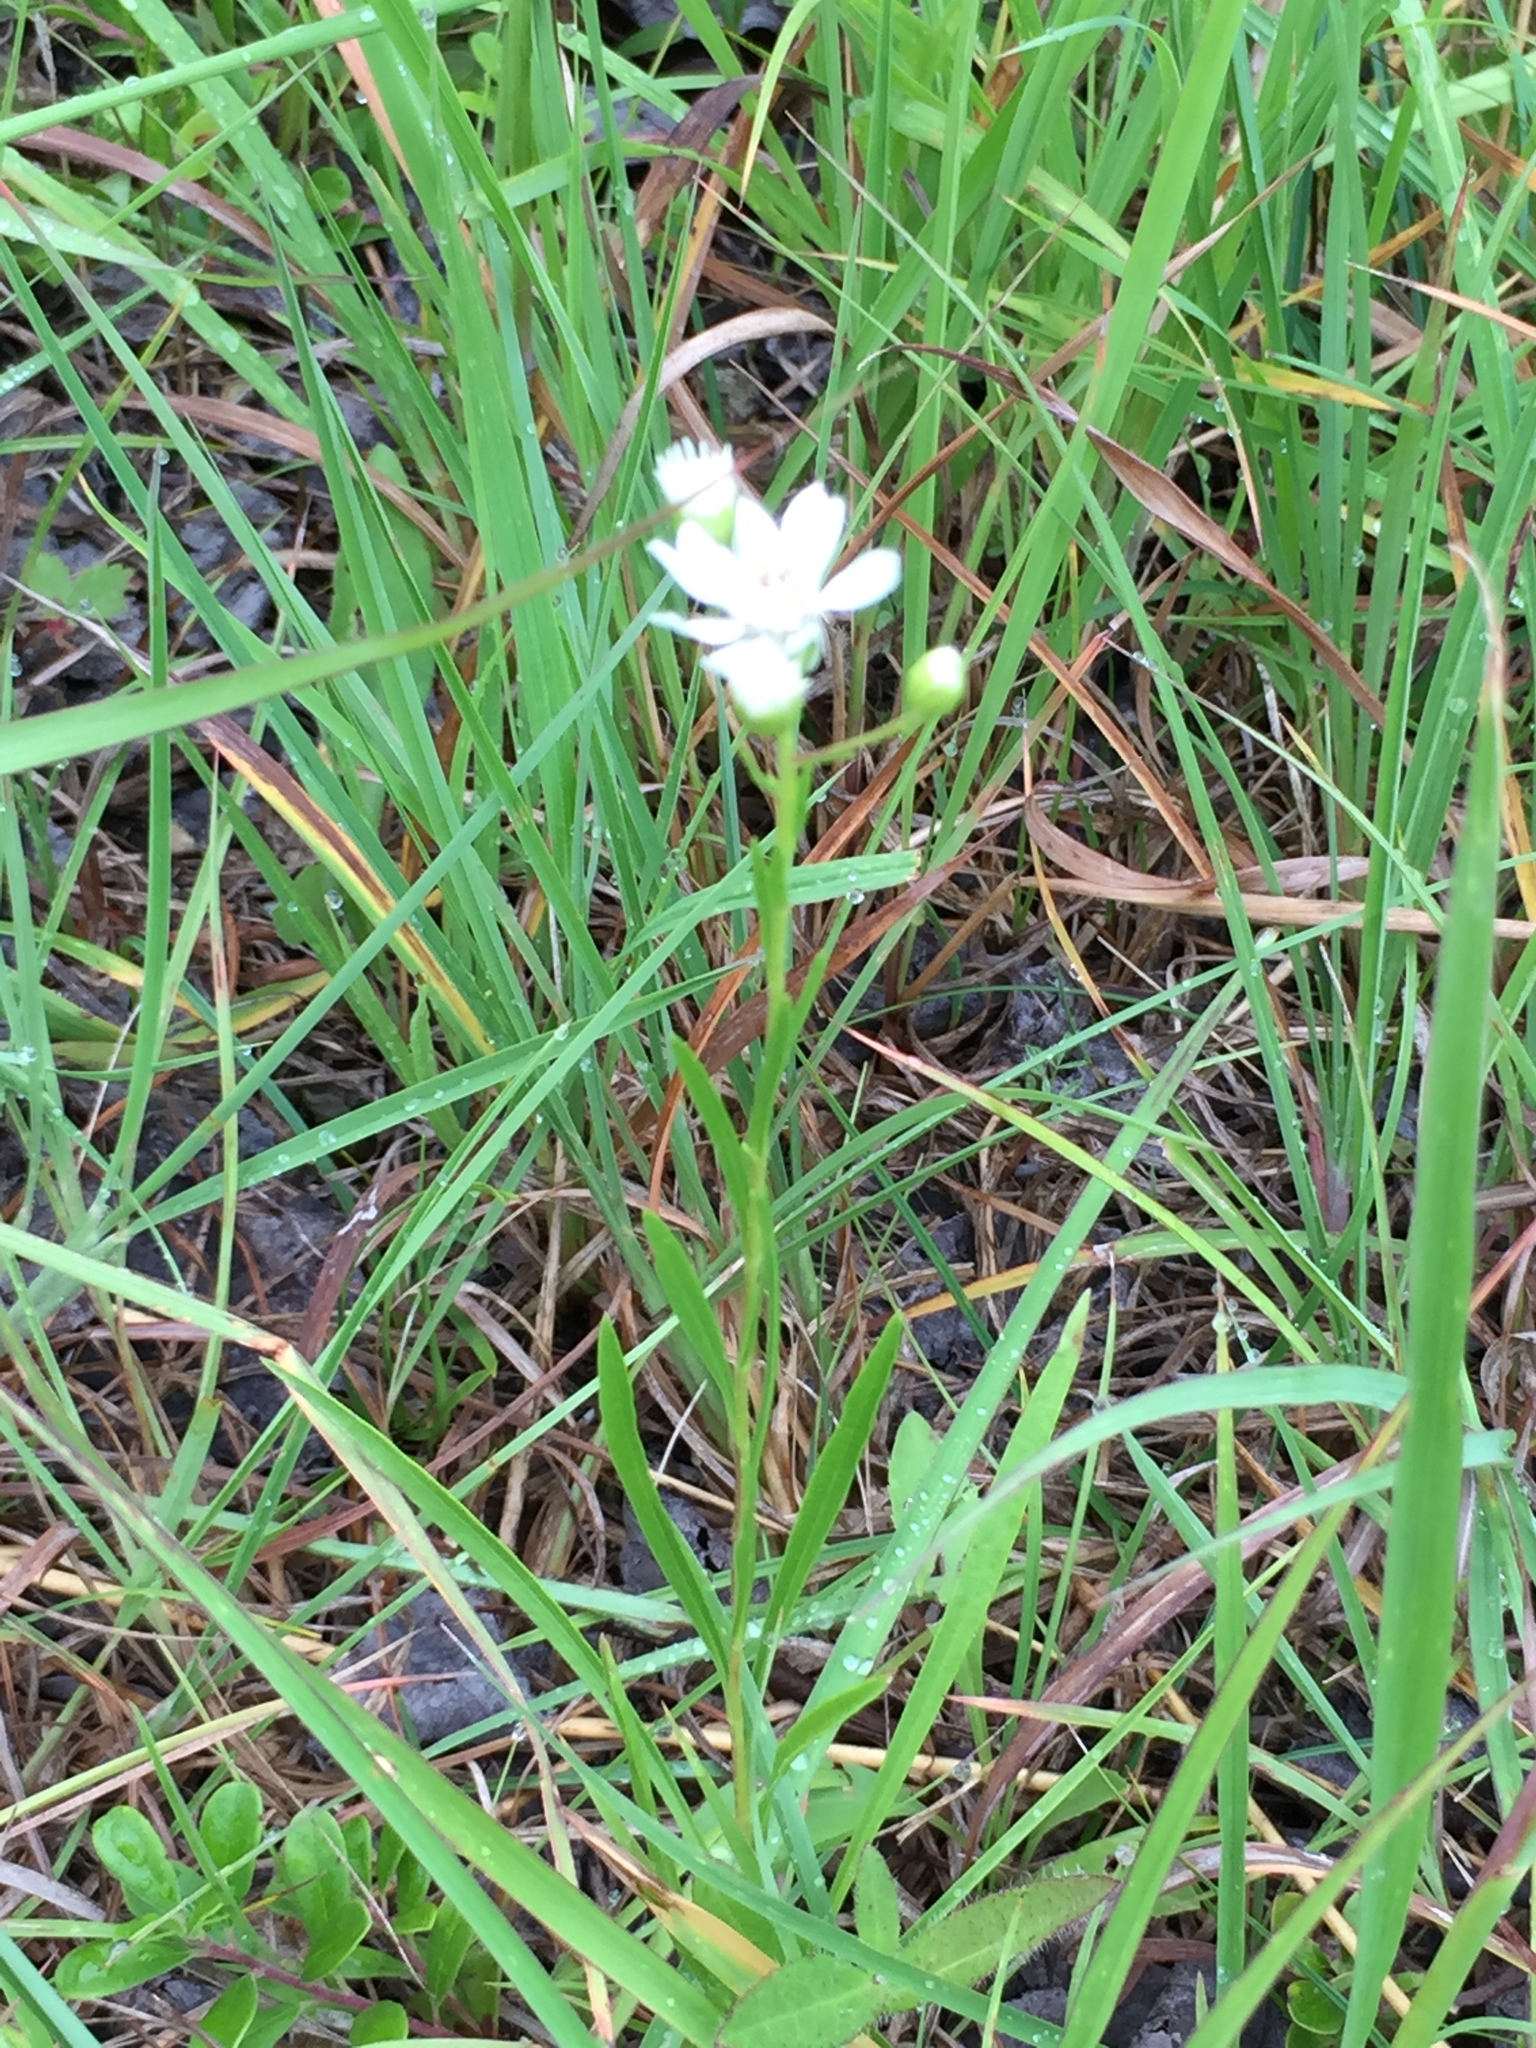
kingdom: Plantae
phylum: Tracheophyta
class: Magnoliopsida
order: Asterales
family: Asteraceae
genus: Solidago
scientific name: Solidago ptarmicoides
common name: White flat-top goldenrod
